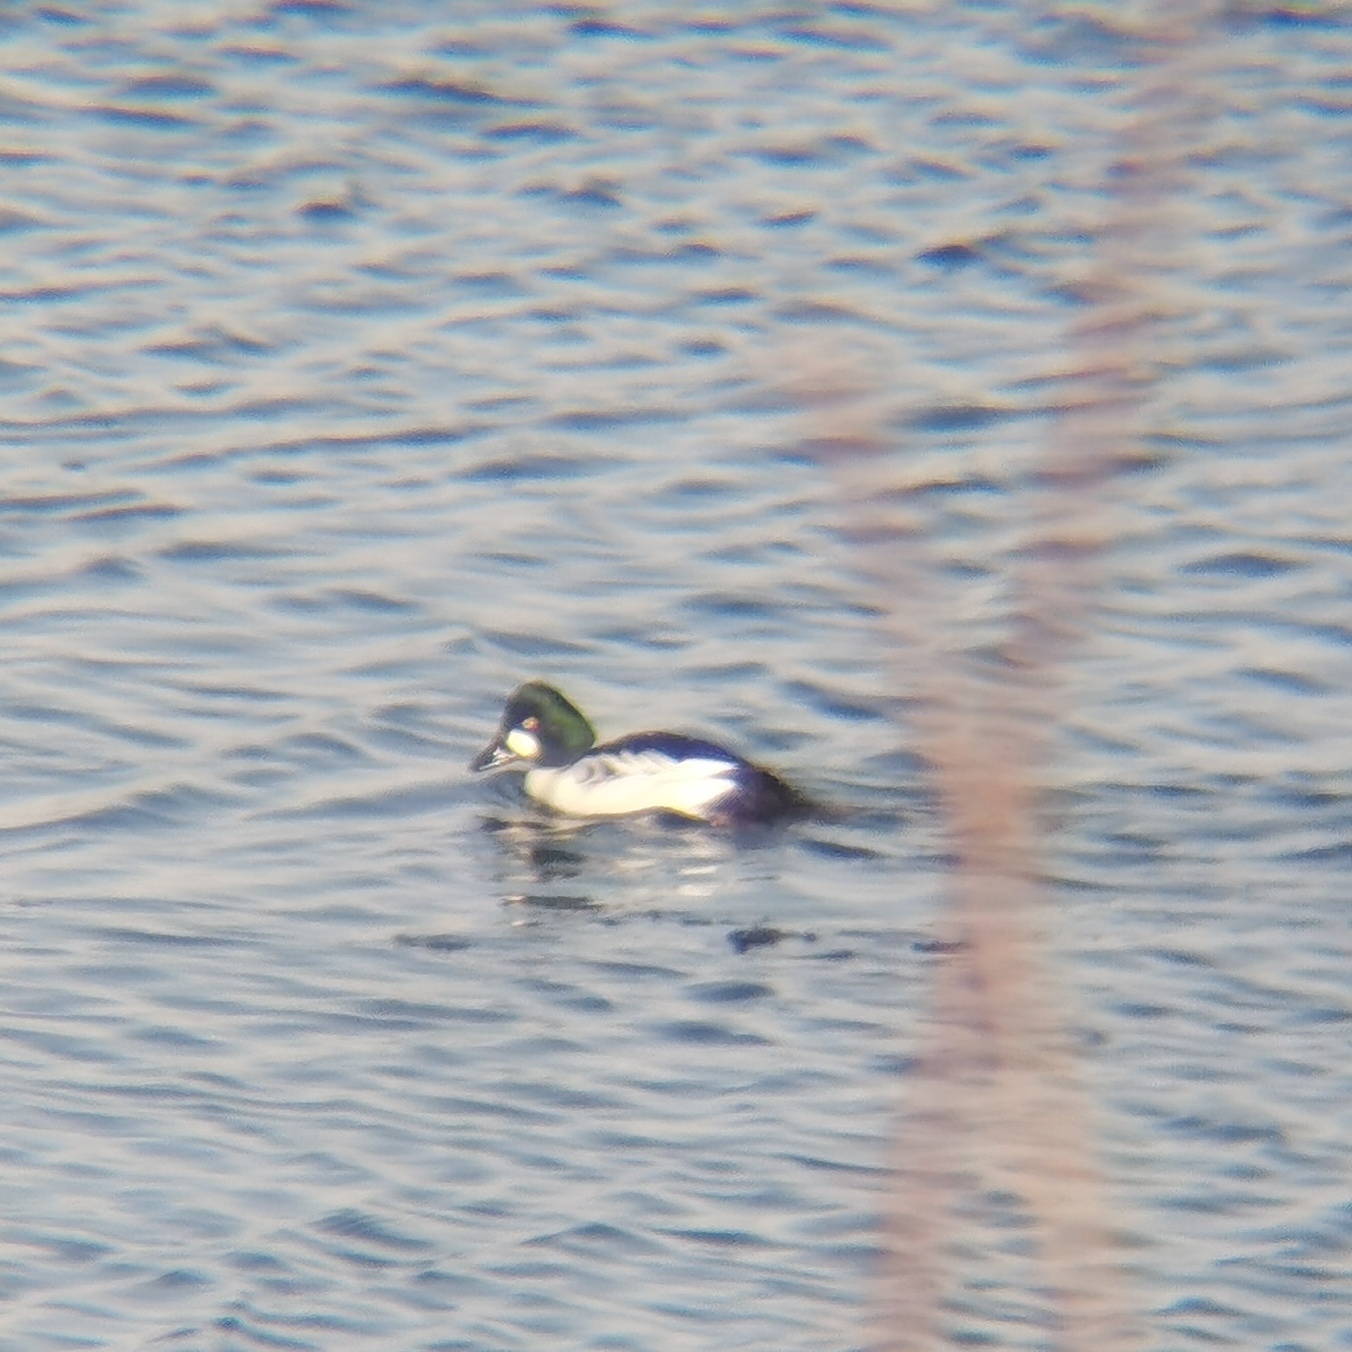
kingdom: Animalia
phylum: Chordata
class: Aves
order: Anseriformes
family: Anatidae
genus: Bucephala
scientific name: Bucephala clangula
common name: Common goldeneye
